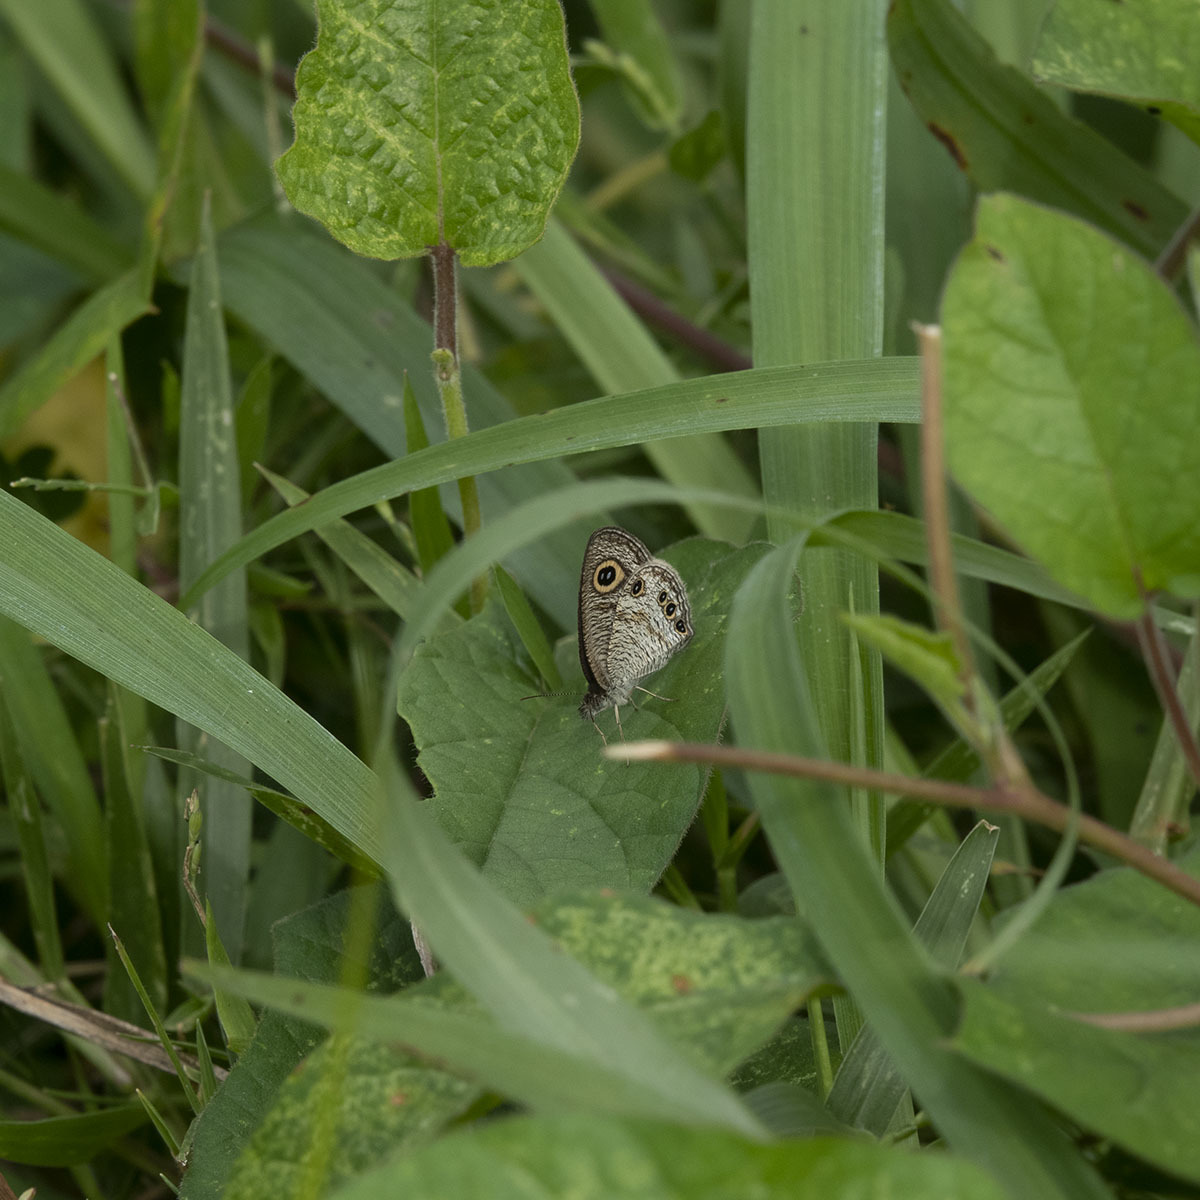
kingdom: Animalia
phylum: Arthropoda
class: Insecta
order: Lepidoptera
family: Nymphalidae
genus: Ypthima
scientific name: Ypthima huebneri
